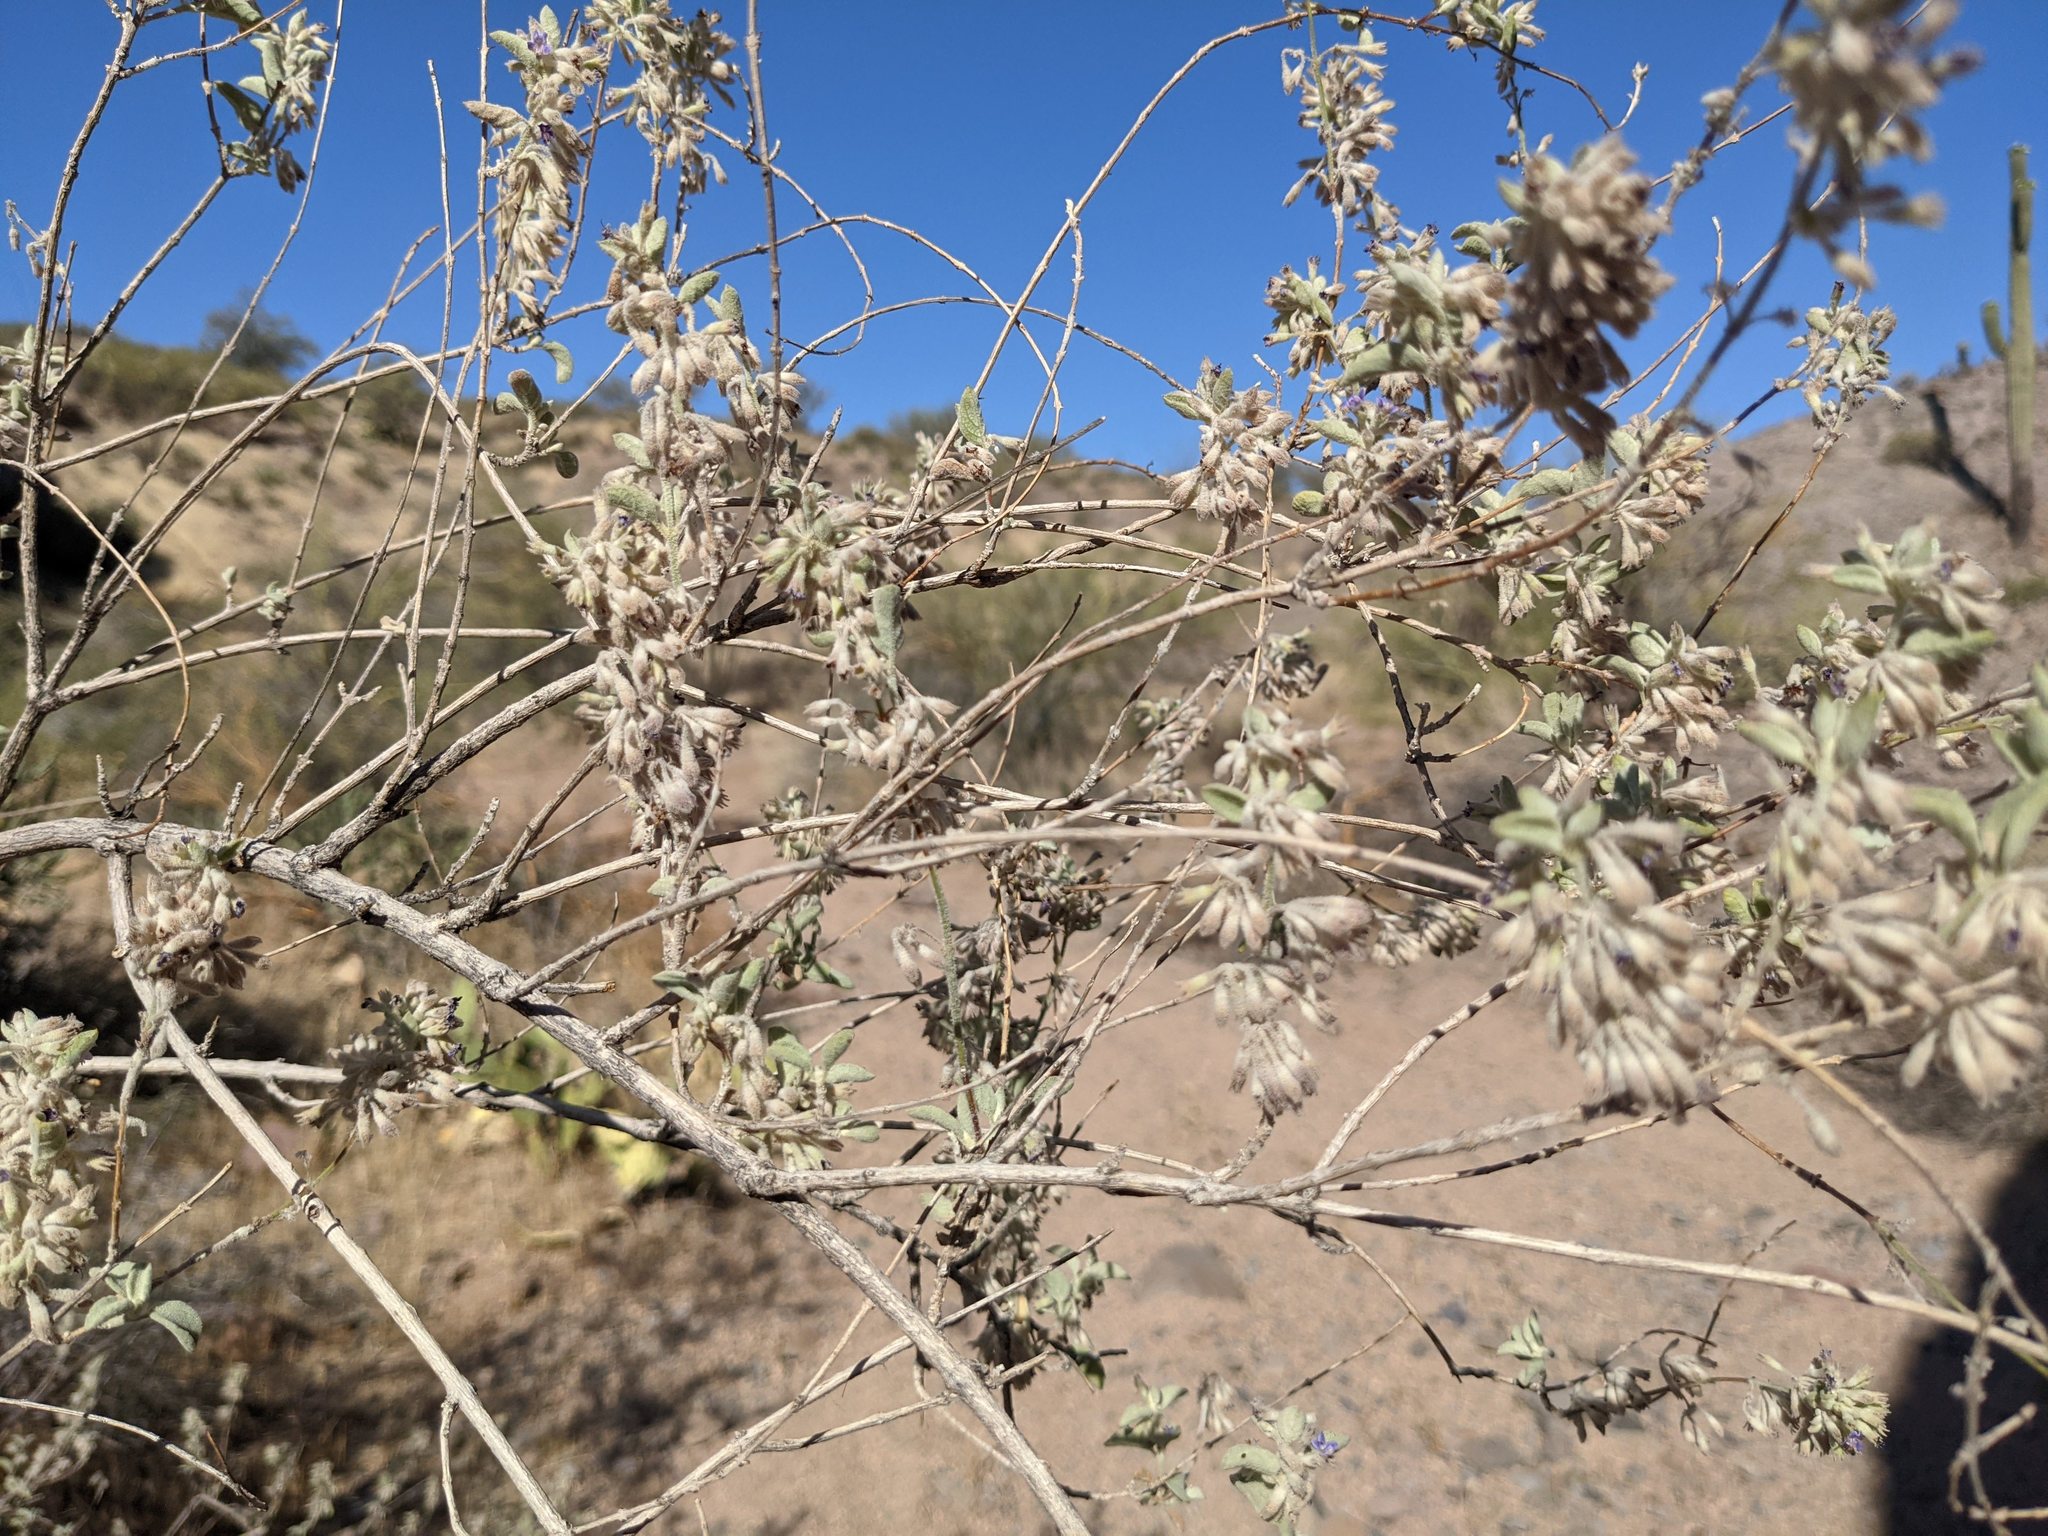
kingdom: Plantae
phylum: Tracheophyta
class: Magnoliopsida
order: Lamiales
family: Lamiaceae
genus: Condea
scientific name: Condea emoryi
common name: Chia
